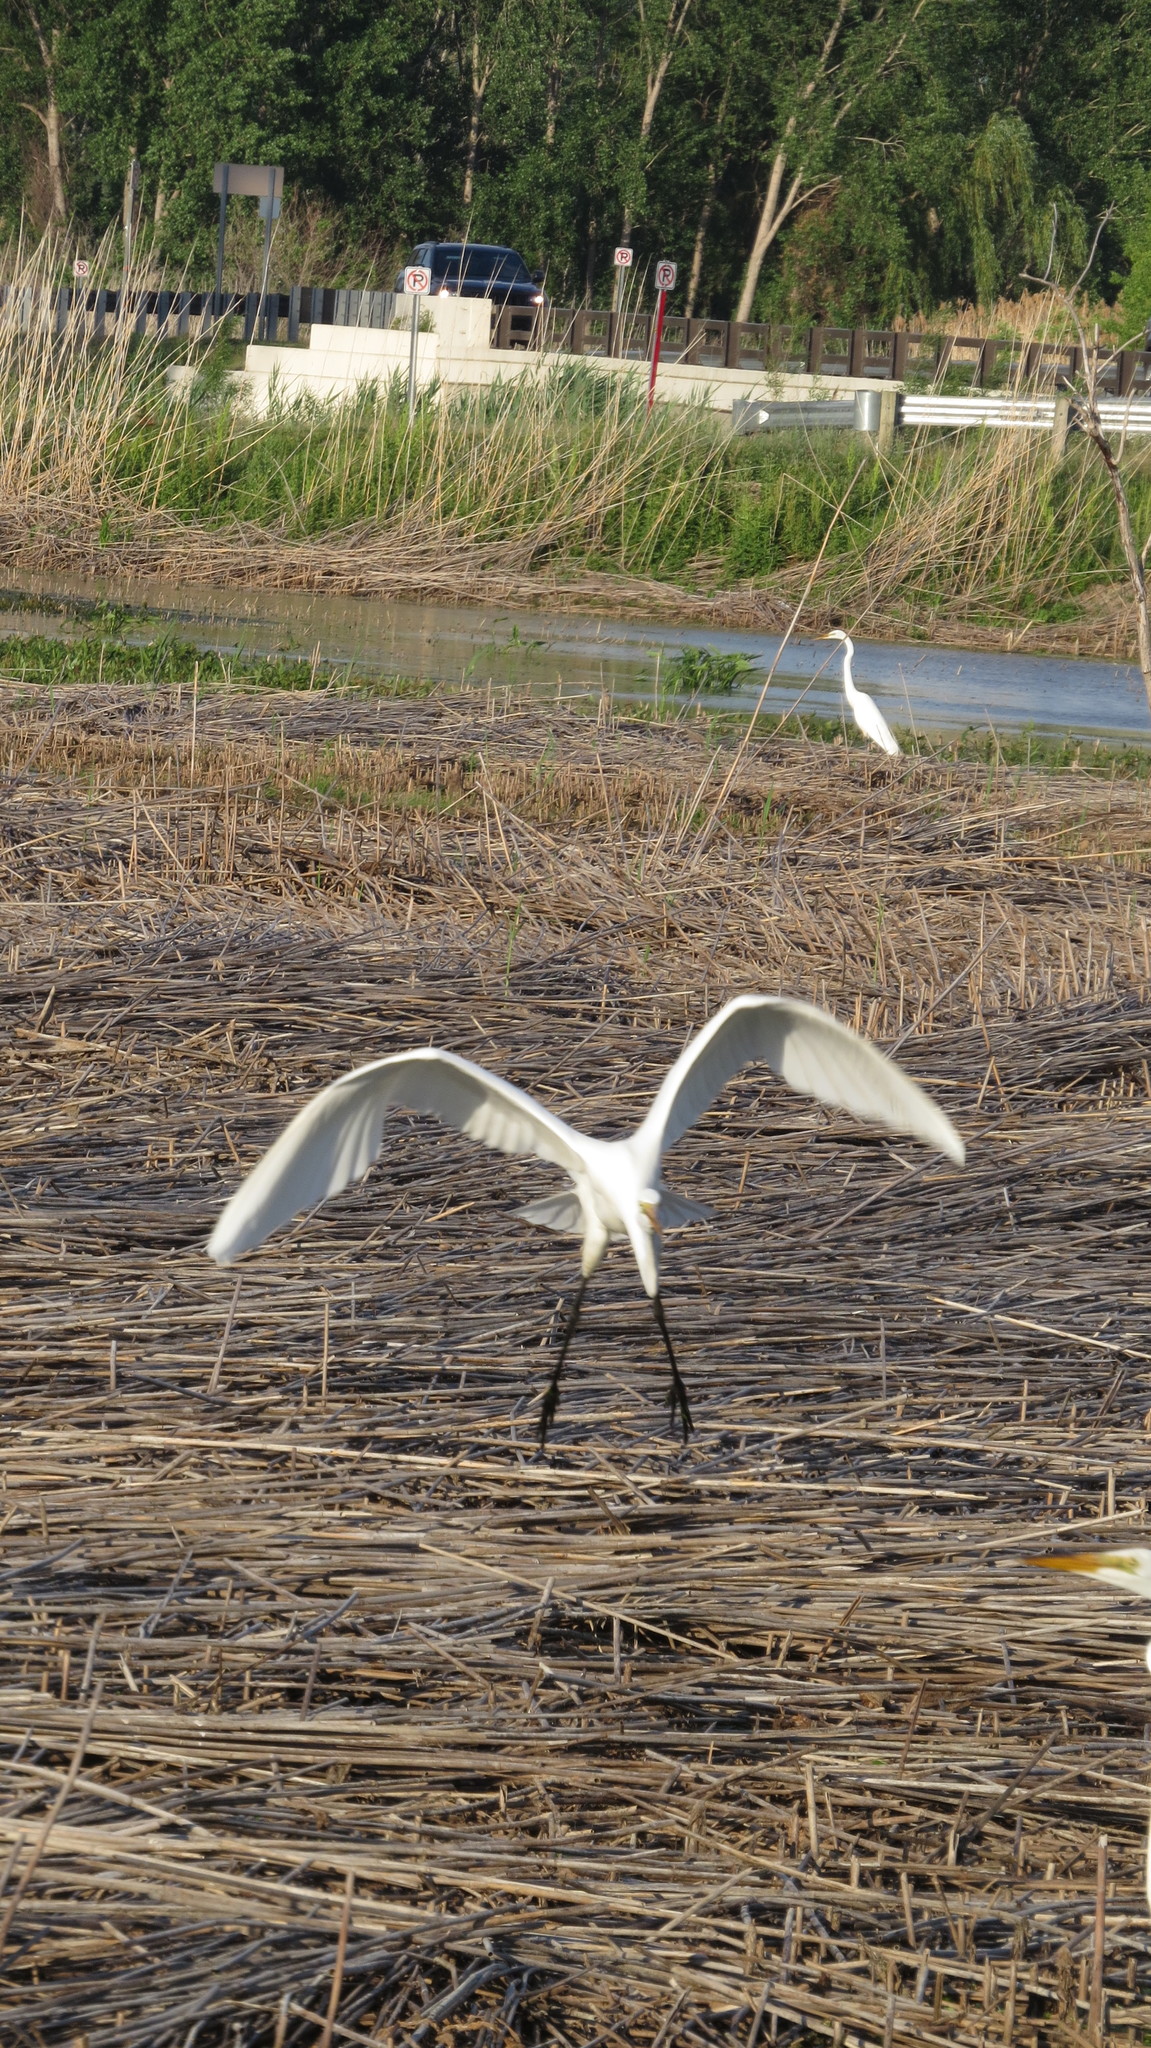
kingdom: Animalia
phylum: Chordata
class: Aves
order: Pelecaniformes
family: Ardeidae
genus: Ardea
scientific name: Ardea alba
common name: Great egret
